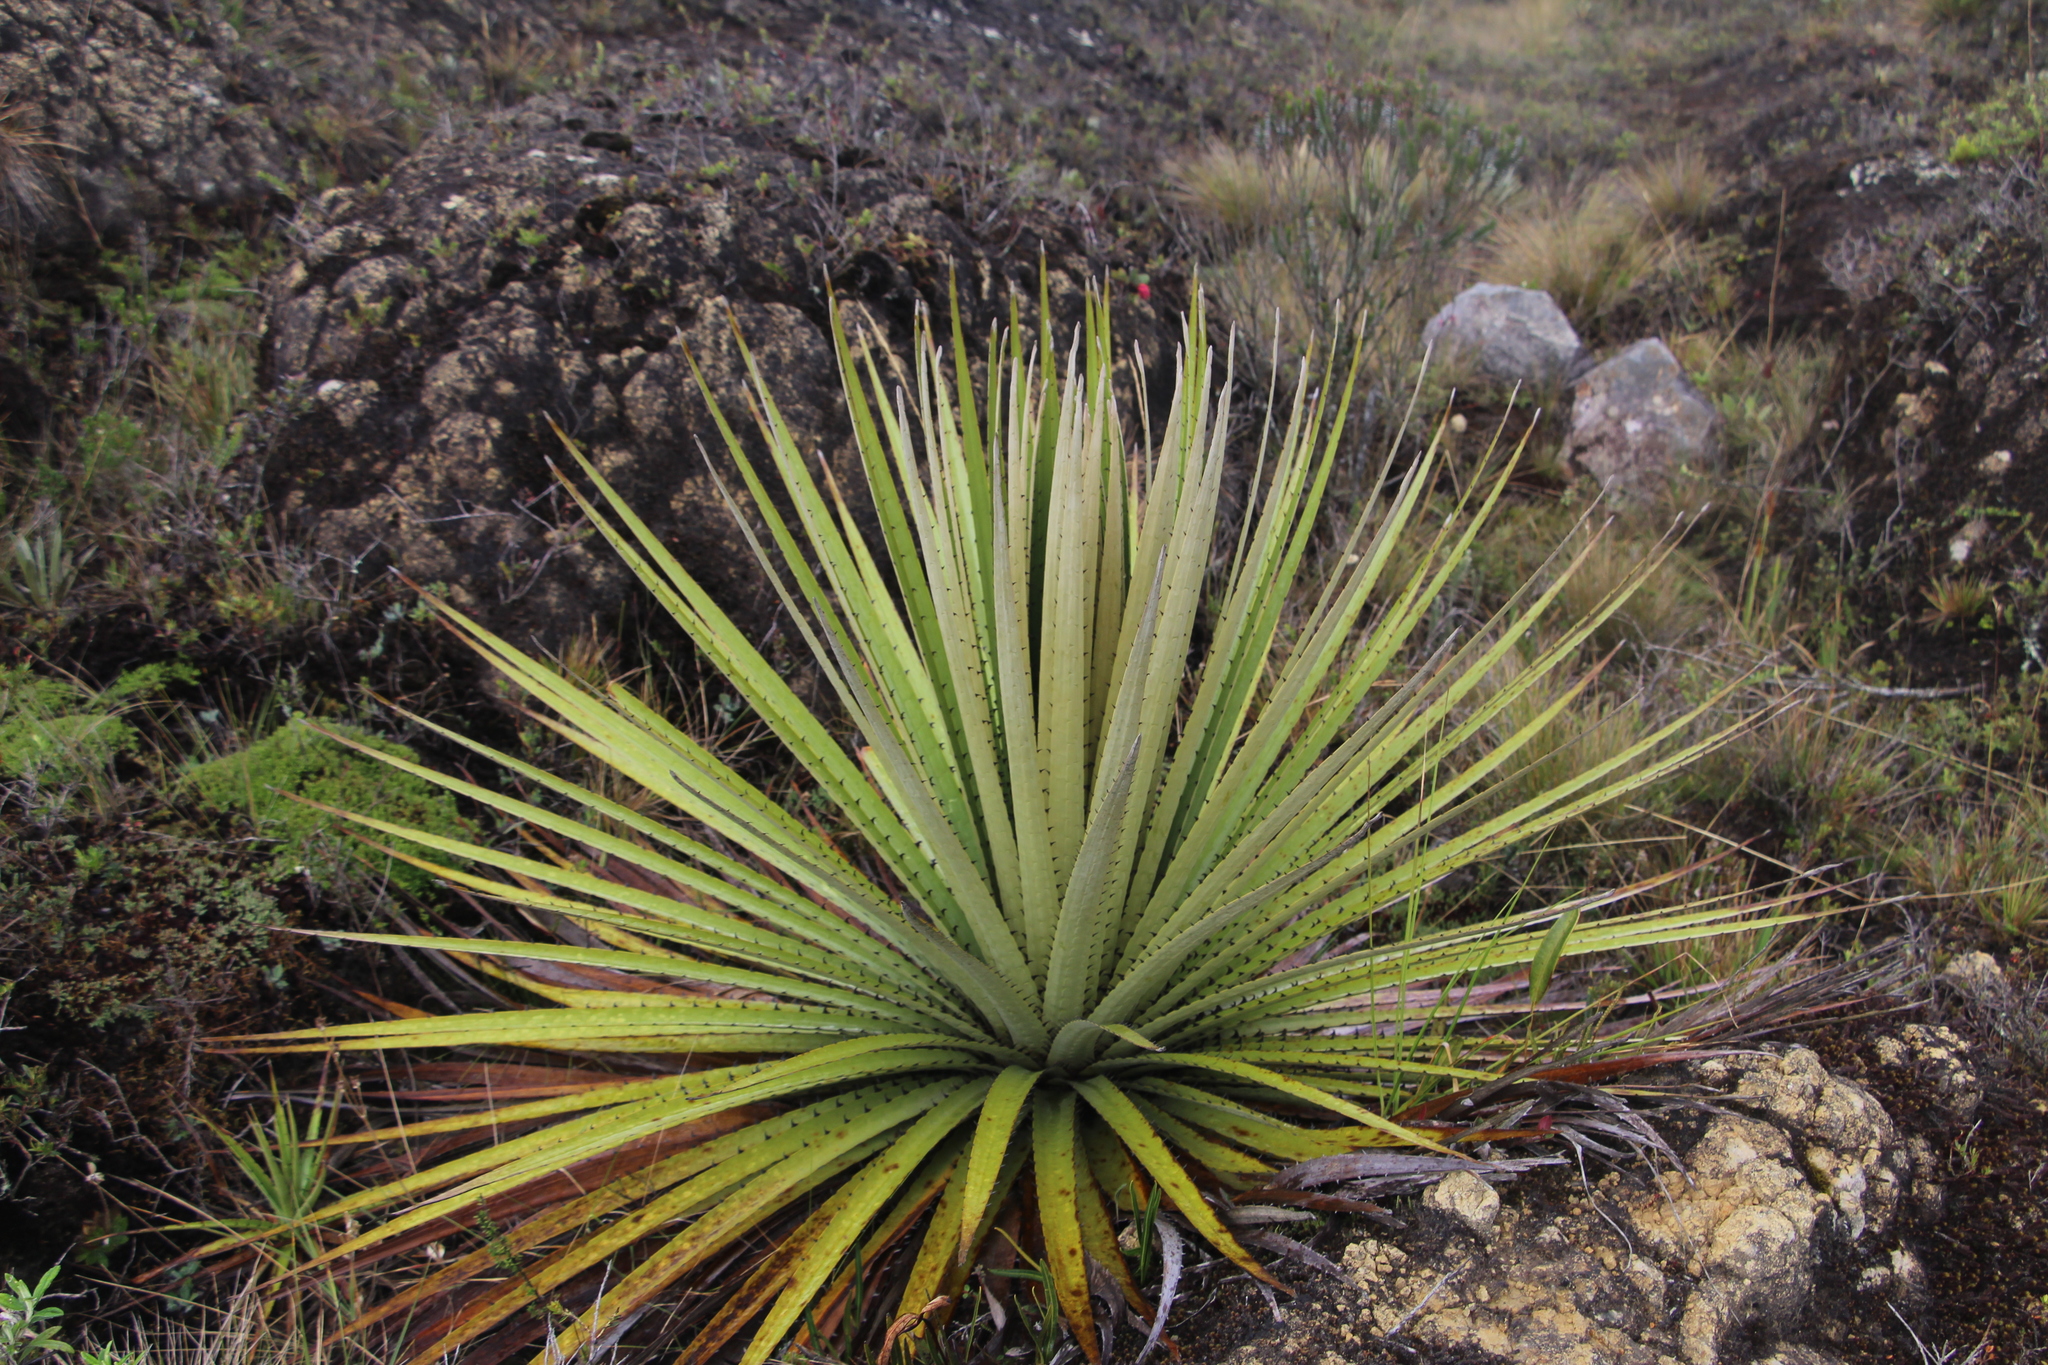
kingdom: Plantae
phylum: Tracheophyta
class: Liliopsida
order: Poales
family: Bromeliaceae
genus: Puya
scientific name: Puya goudotiana
